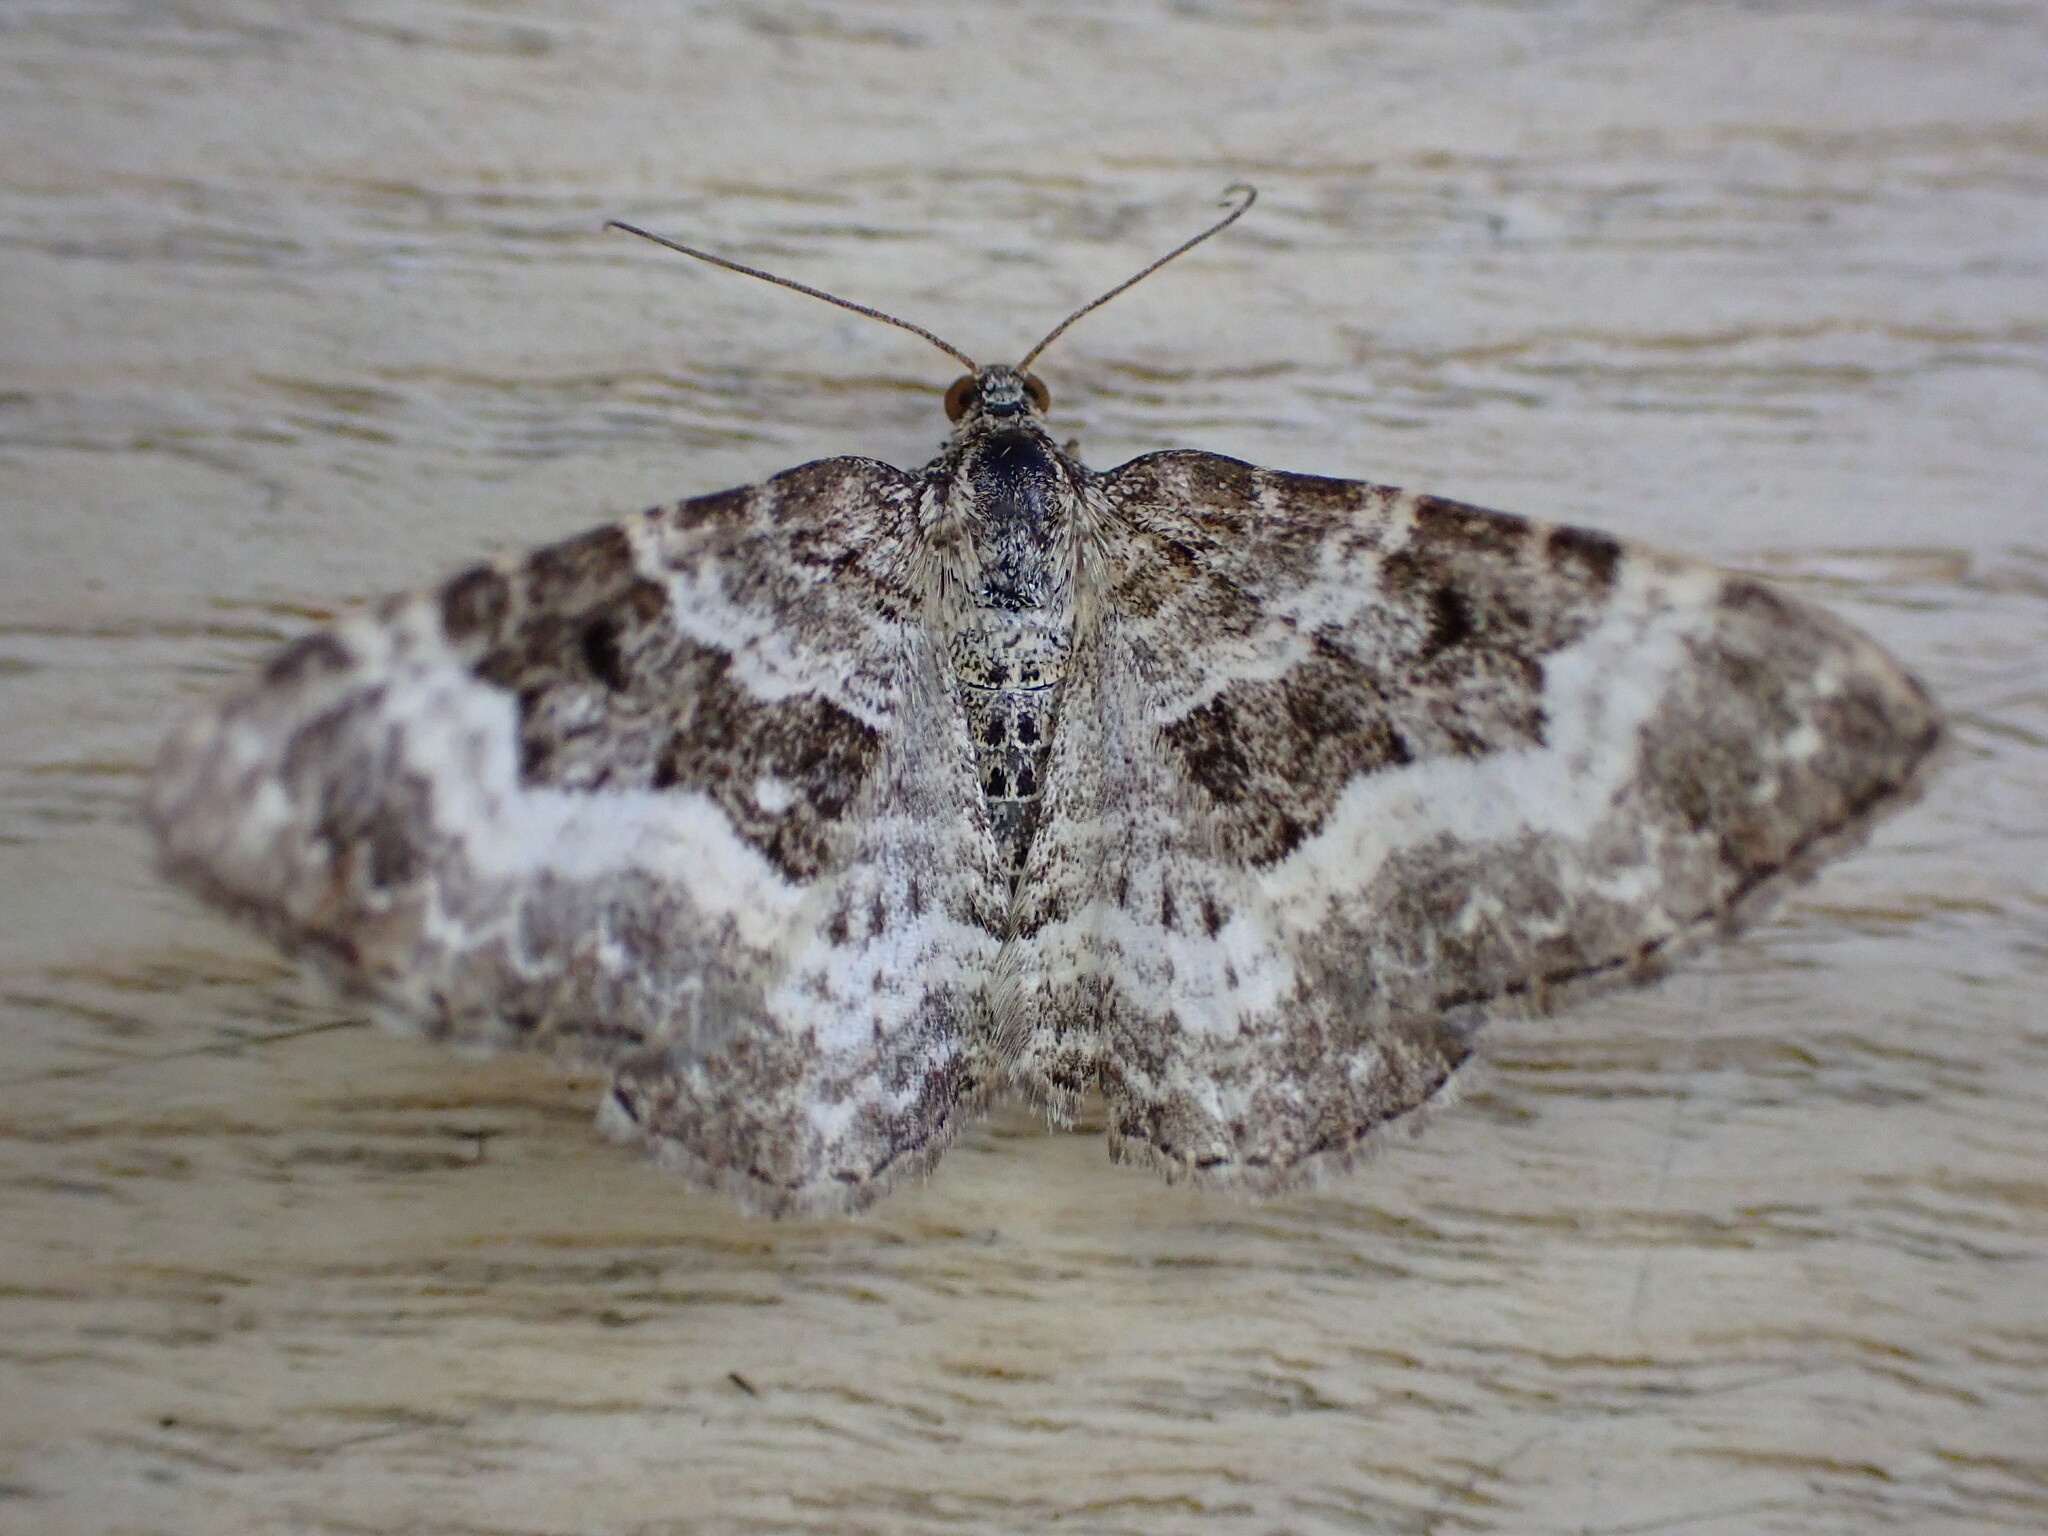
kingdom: Animalia
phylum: Arthropoda
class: Insecta
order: Lepidoptera
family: Geometridae
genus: Epirrhoe
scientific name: Epirrhoe alternata
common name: Common carpet
